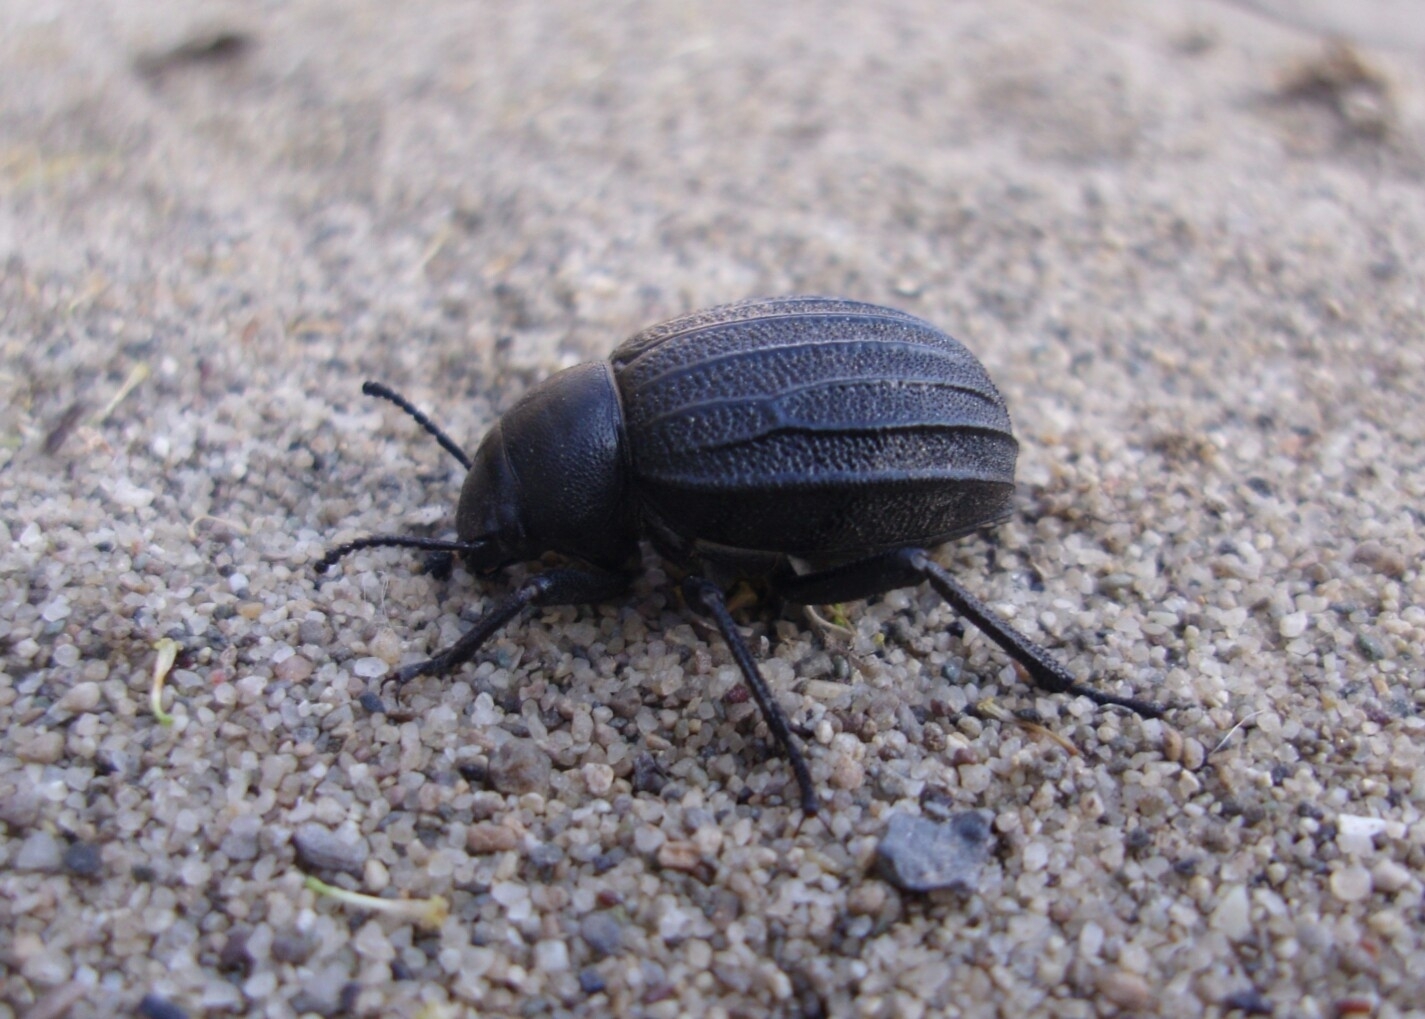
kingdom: Animalia
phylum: Arthropoda
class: Insecta
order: Coleoptera
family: Tenebrionidae
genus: Pimelia
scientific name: Pimelia bipunctata
